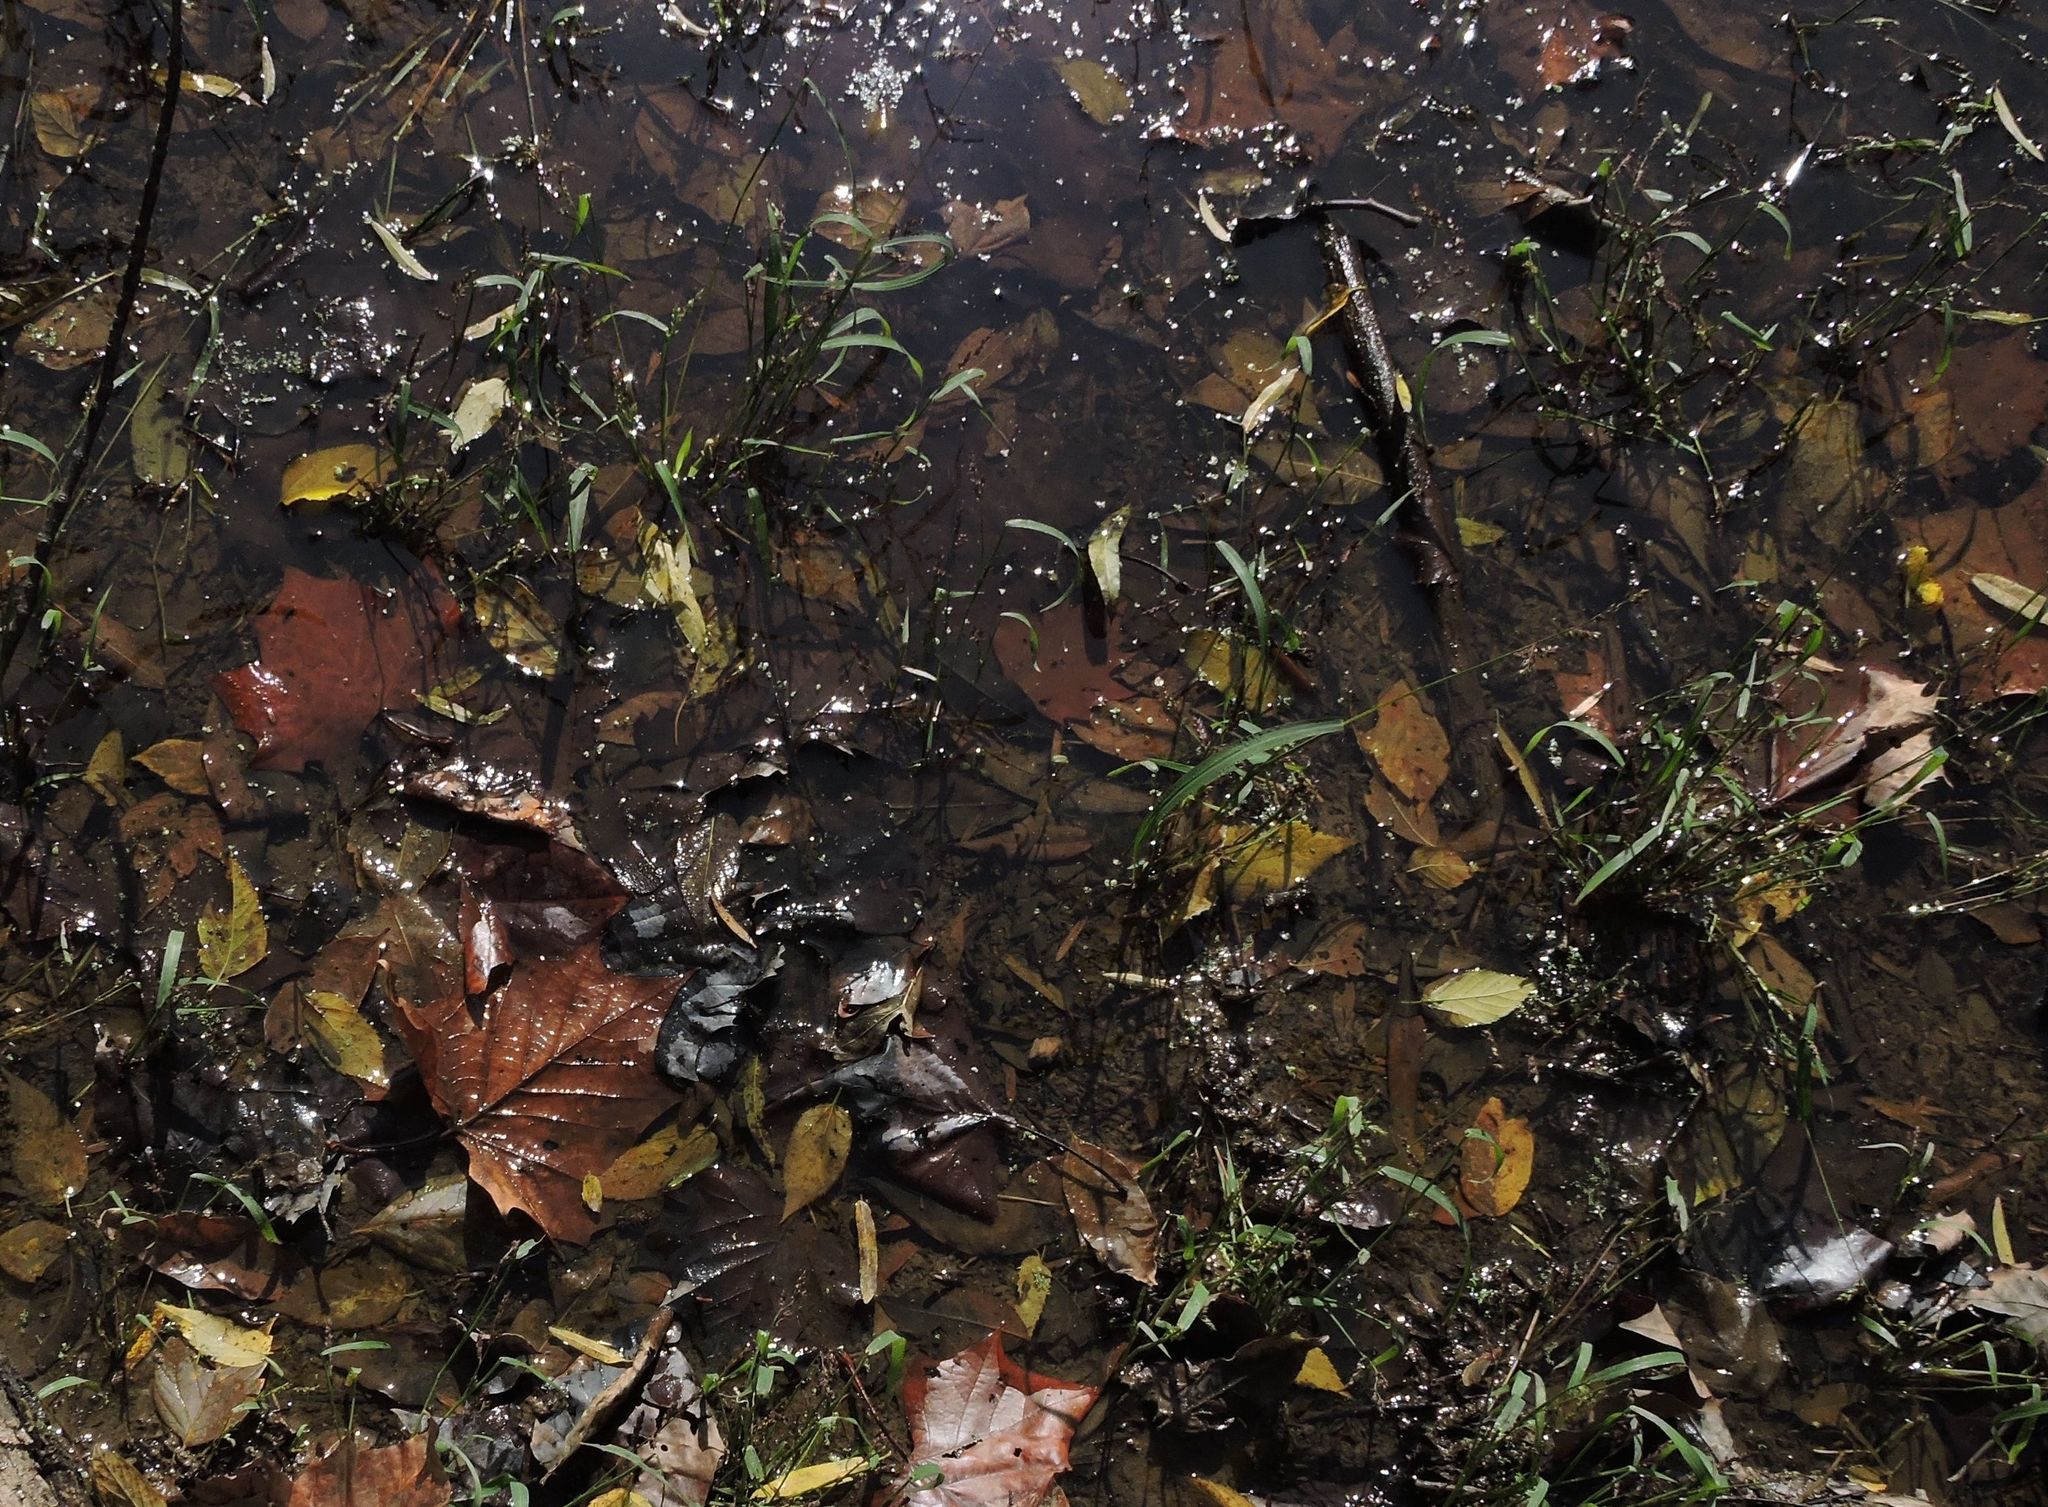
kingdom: Protozoa
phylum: Euglenozoa
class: Euglenoidea
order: Euglenida
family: Phacidae
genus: Lepocinclis
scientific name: Lepocinclis acus
